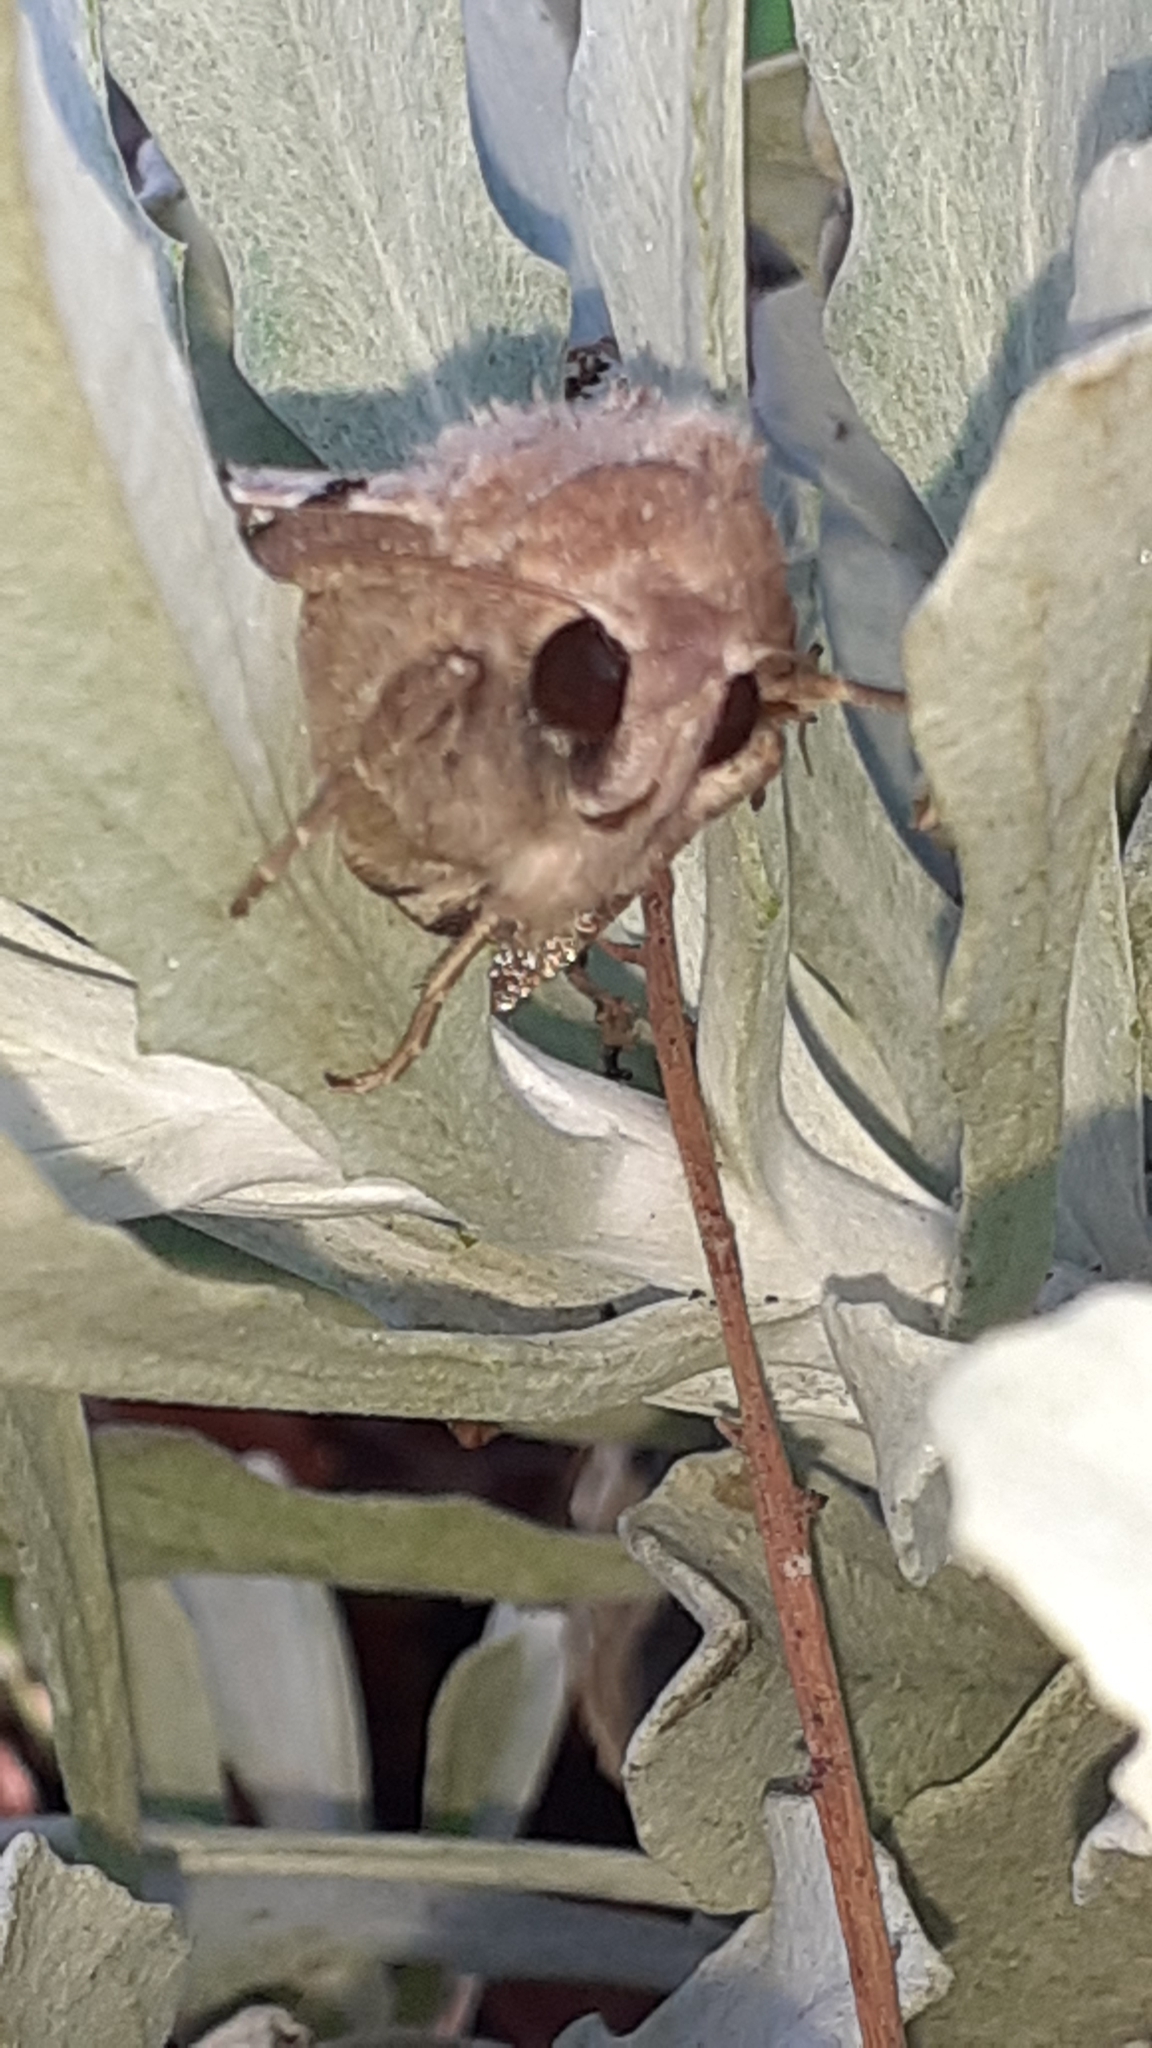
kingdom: Animalia
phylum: Arthropoda
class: Insecta
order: Lepidoptera
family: Erebidae
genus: Serrodes
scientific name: Serrodes campana
